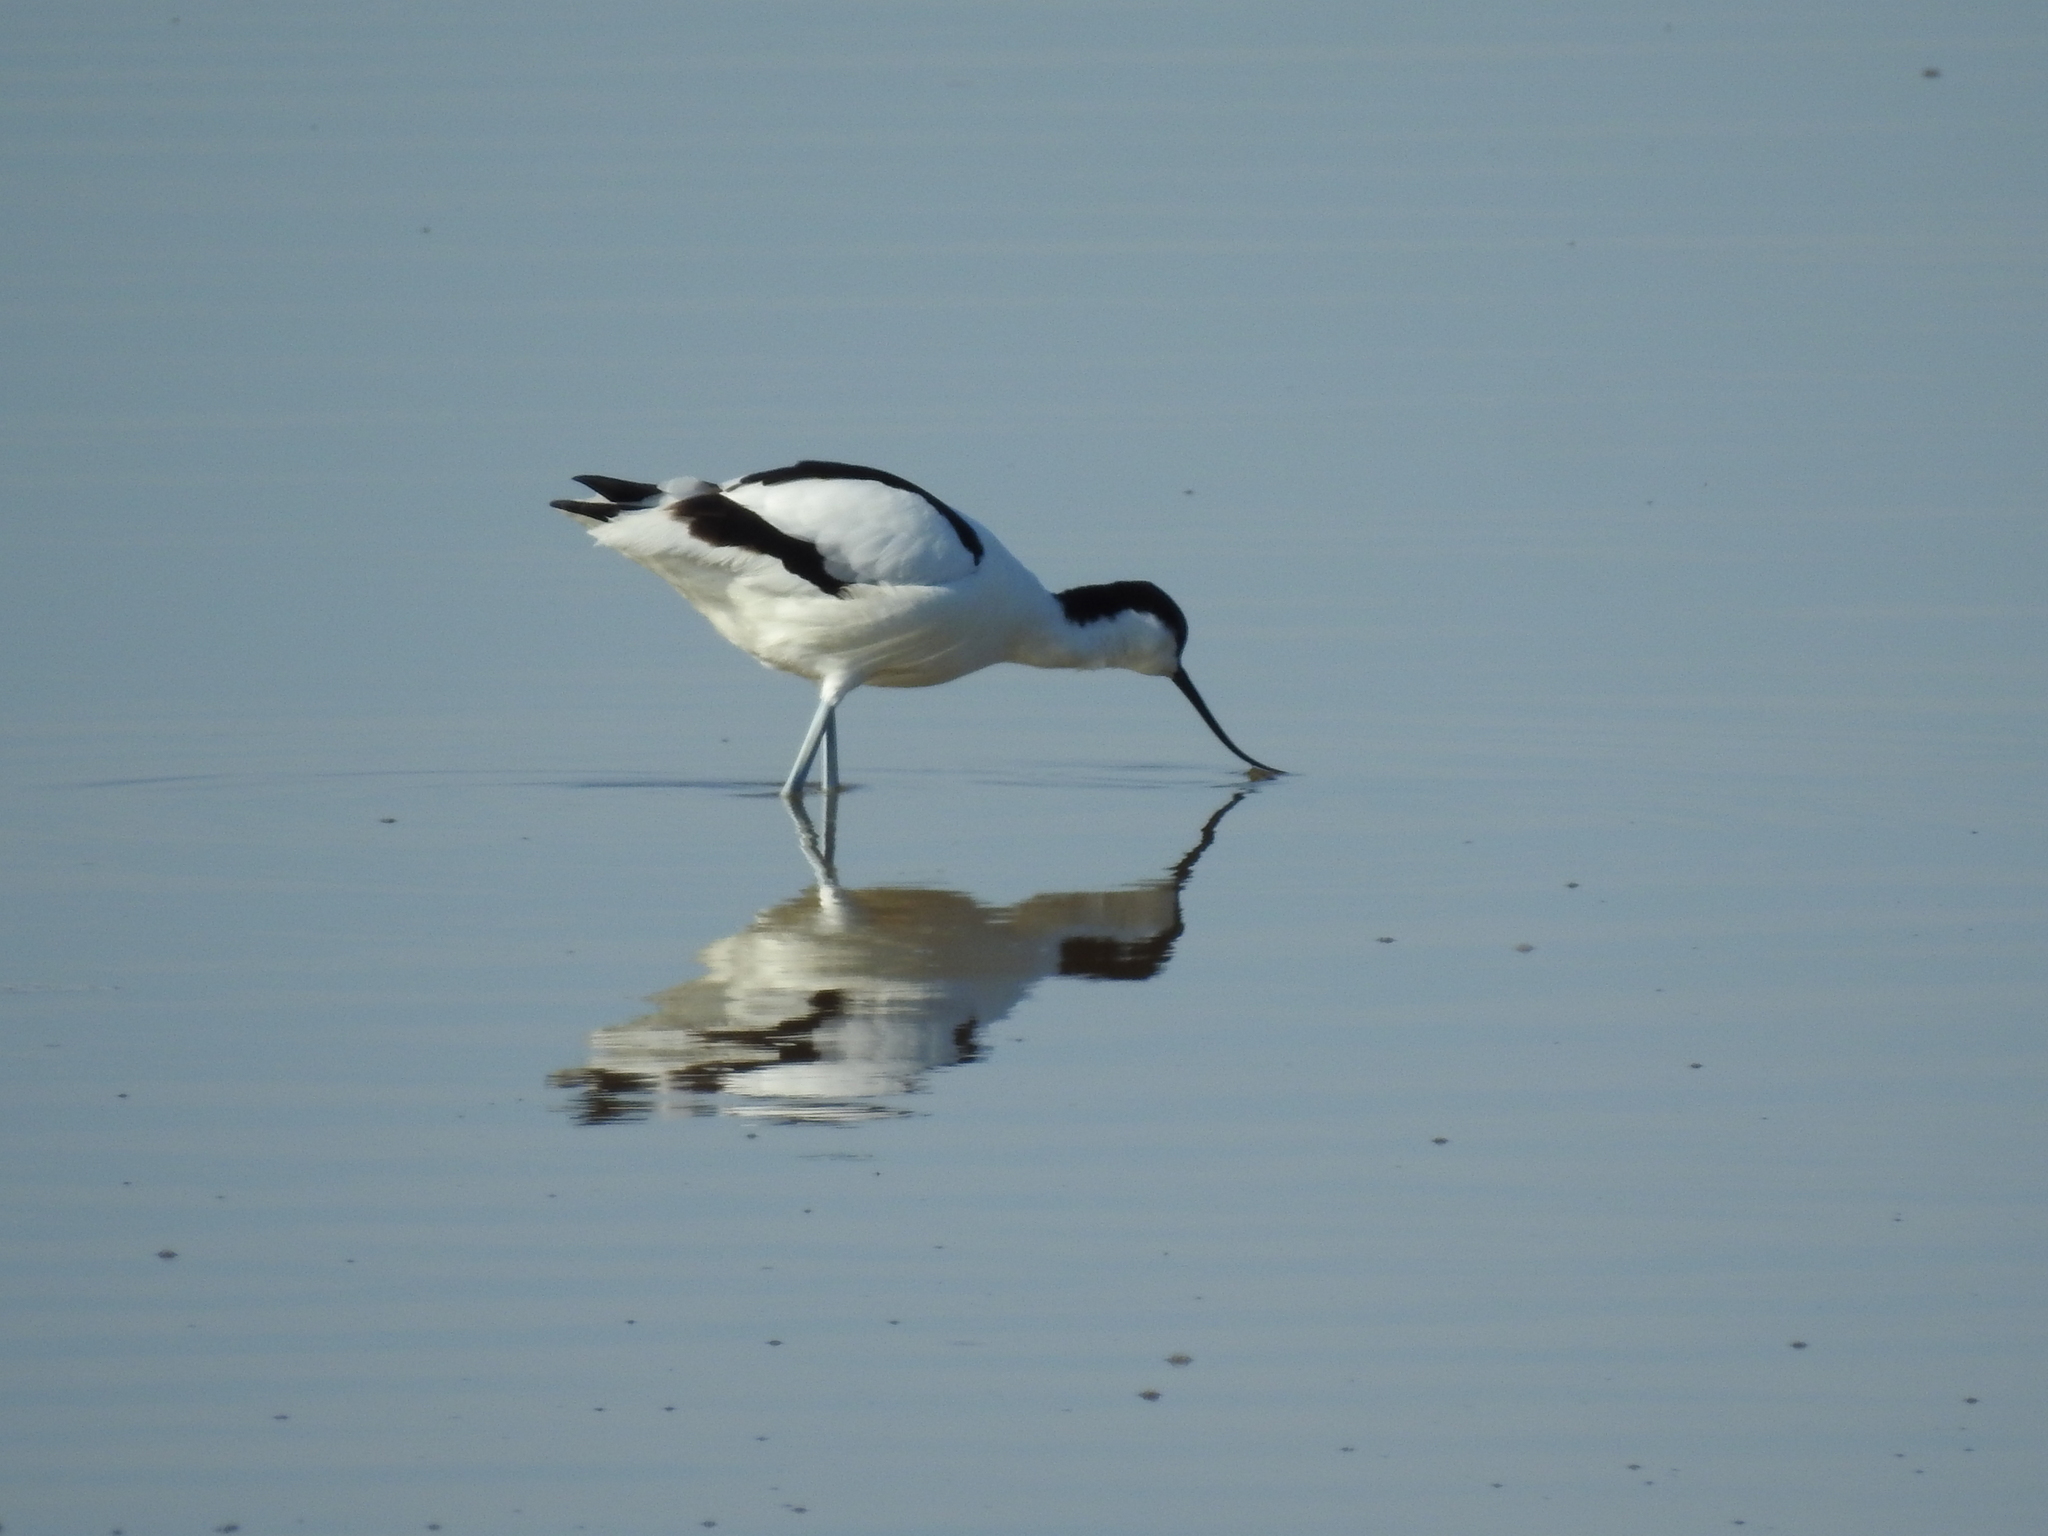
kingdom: Animalia
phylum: Chordata
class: Aves
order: Charadriiformes
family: Recurvirostridae
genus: Recurvirostra
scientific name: Recurvirostra avosetta
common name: Pied avocet
